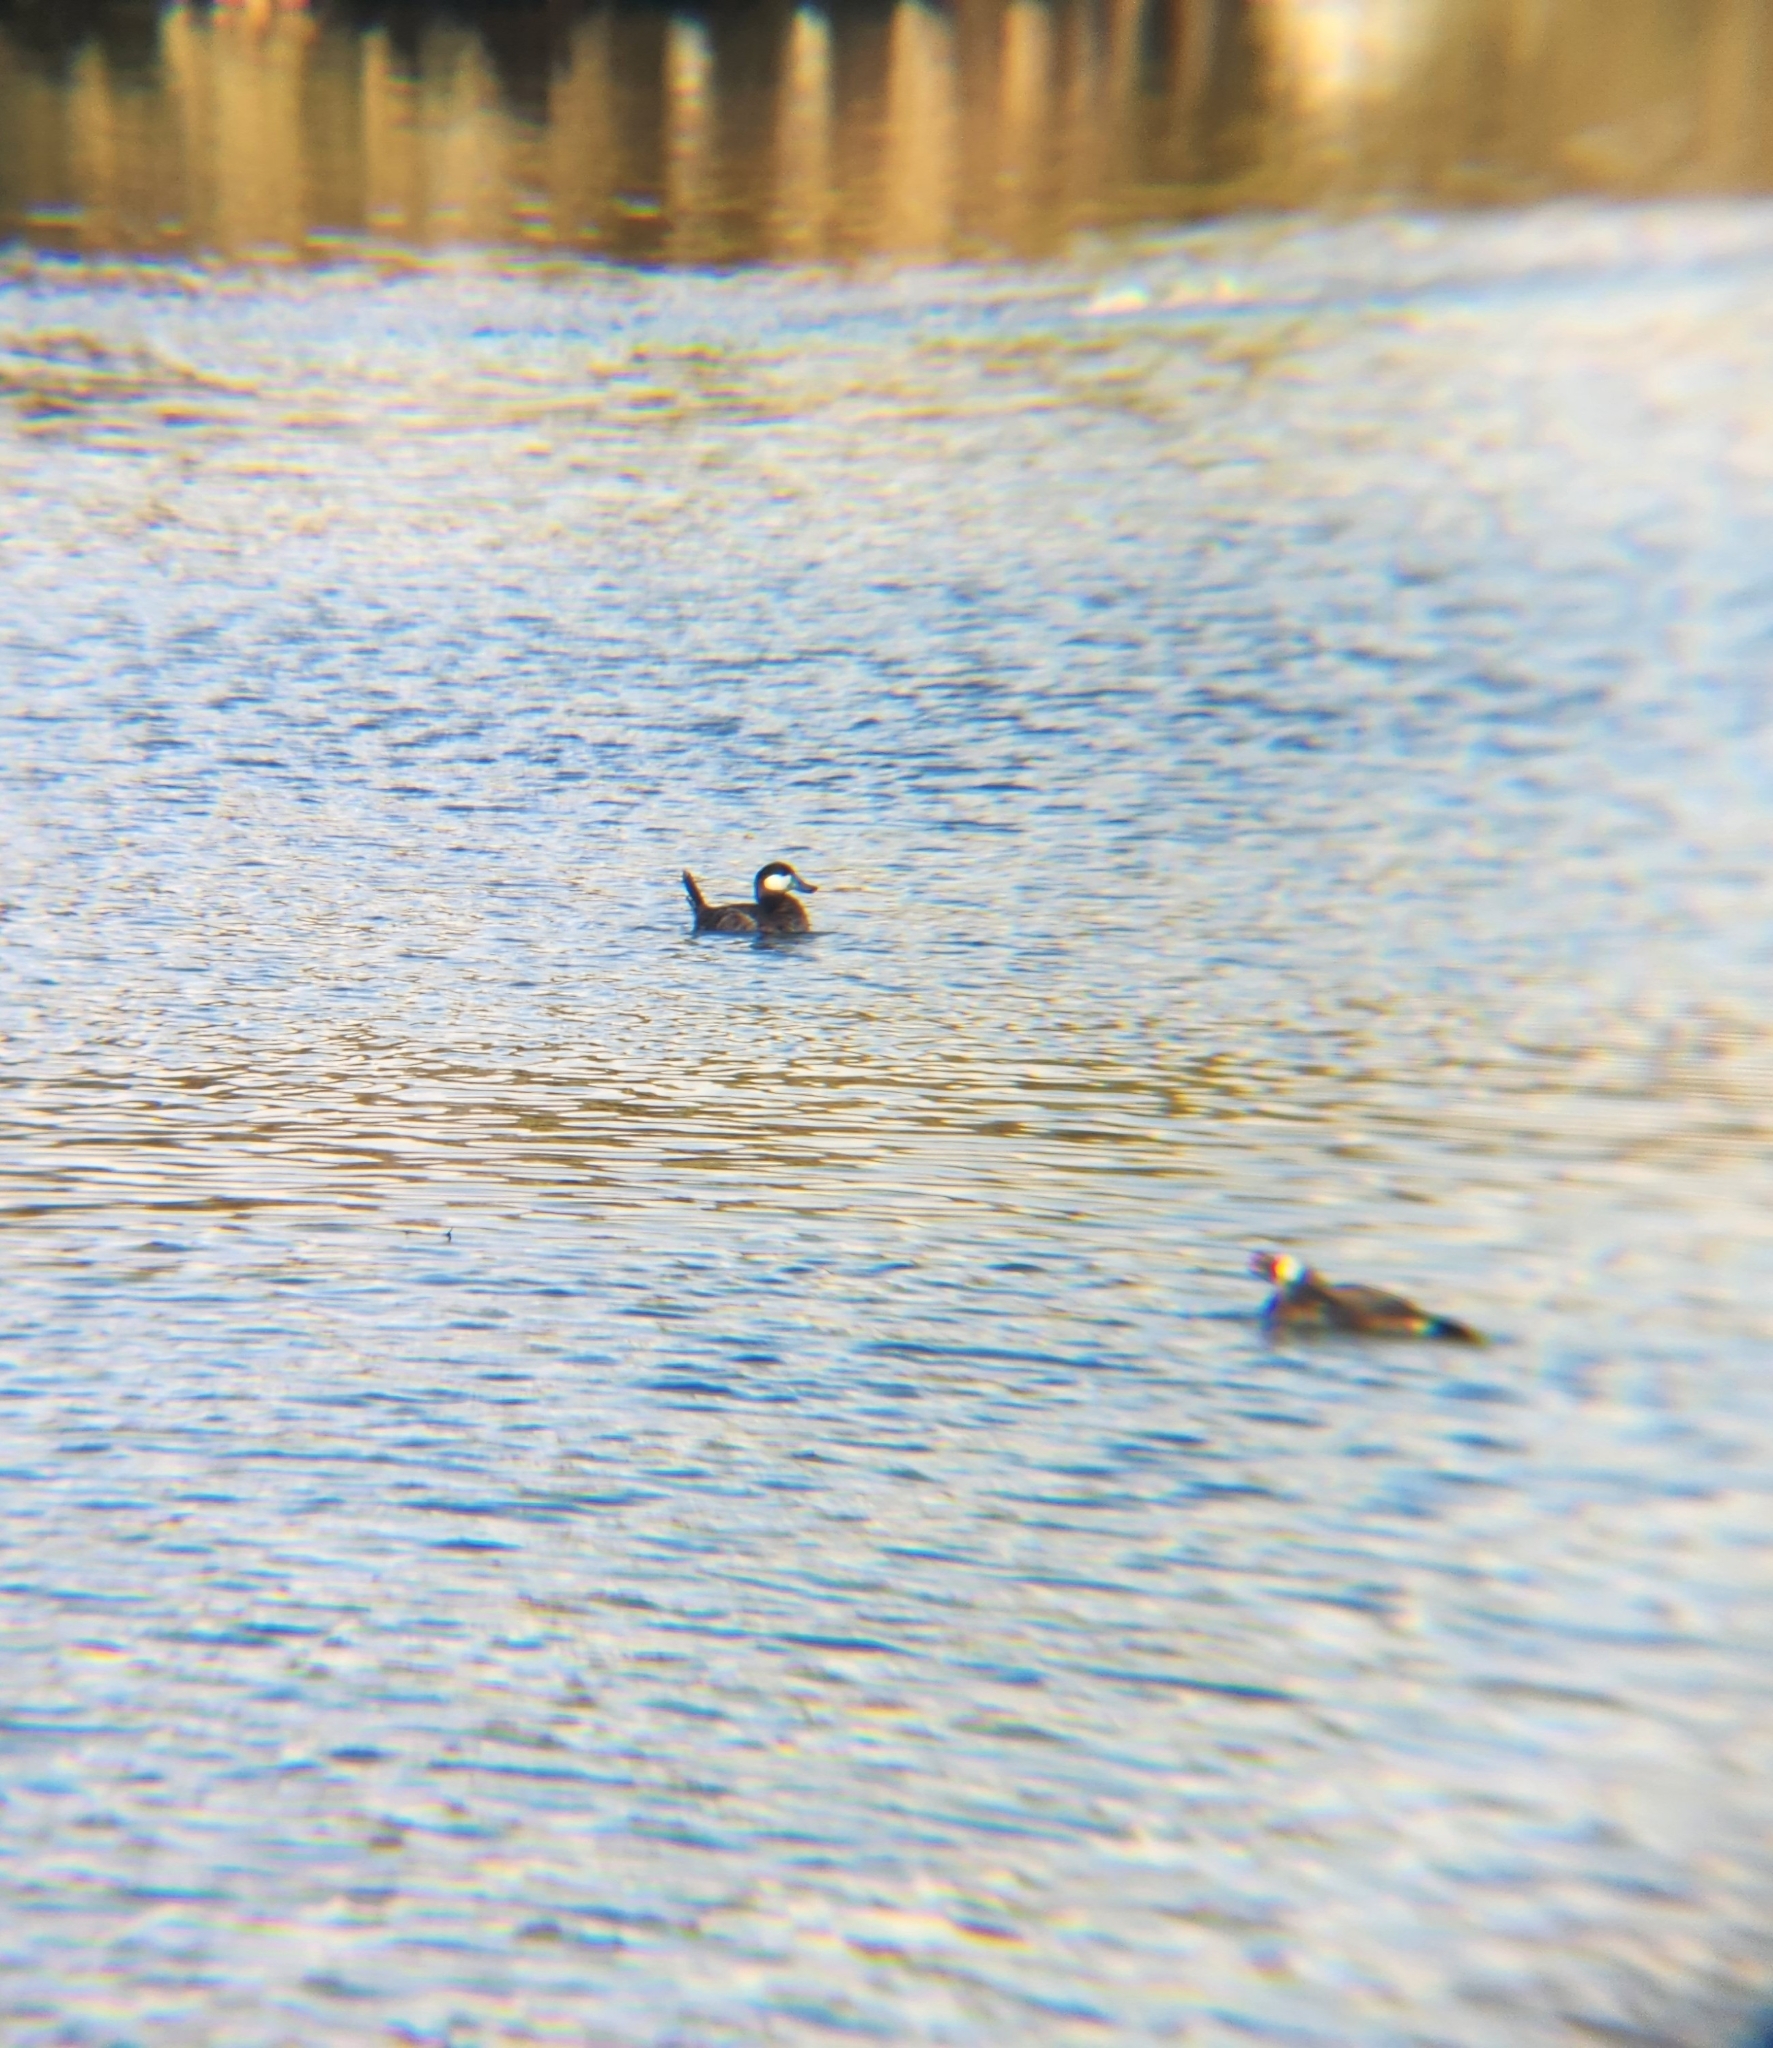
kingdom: Animalia
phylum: Chordata
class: Aves
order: Anseriformes
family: Anatidae
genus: Oxyura
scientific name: Oxyura jamaicensis
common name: Ruddy duck
